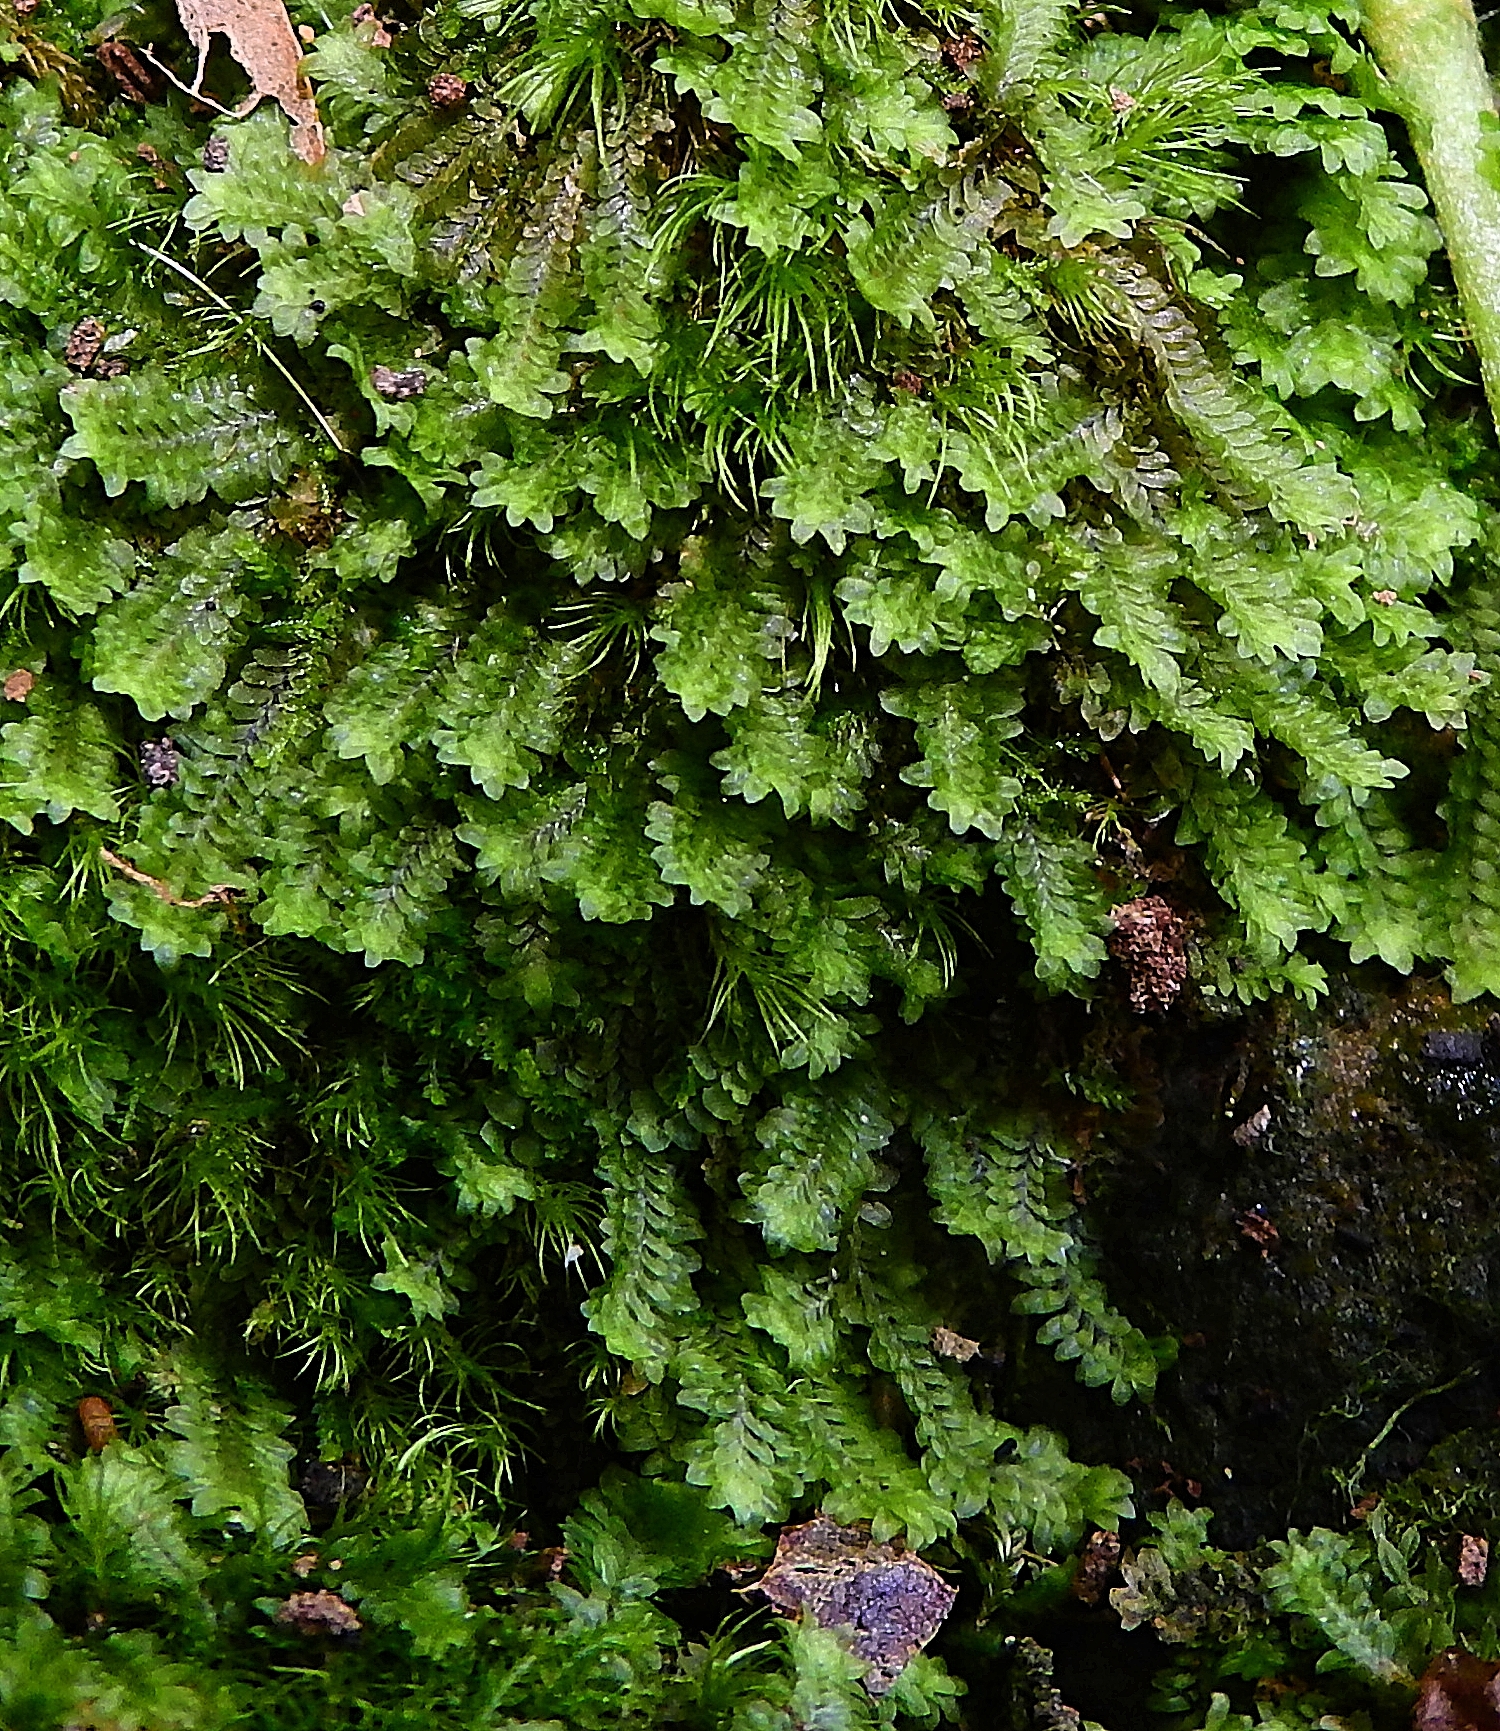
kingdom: Plantae
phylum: Marchantiophyta
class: Jungermanniopsida
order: Jungermanniales
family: Scapaniaceae
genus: Diplophyllum
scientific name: Diplophyllum albicans
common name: White earwort
